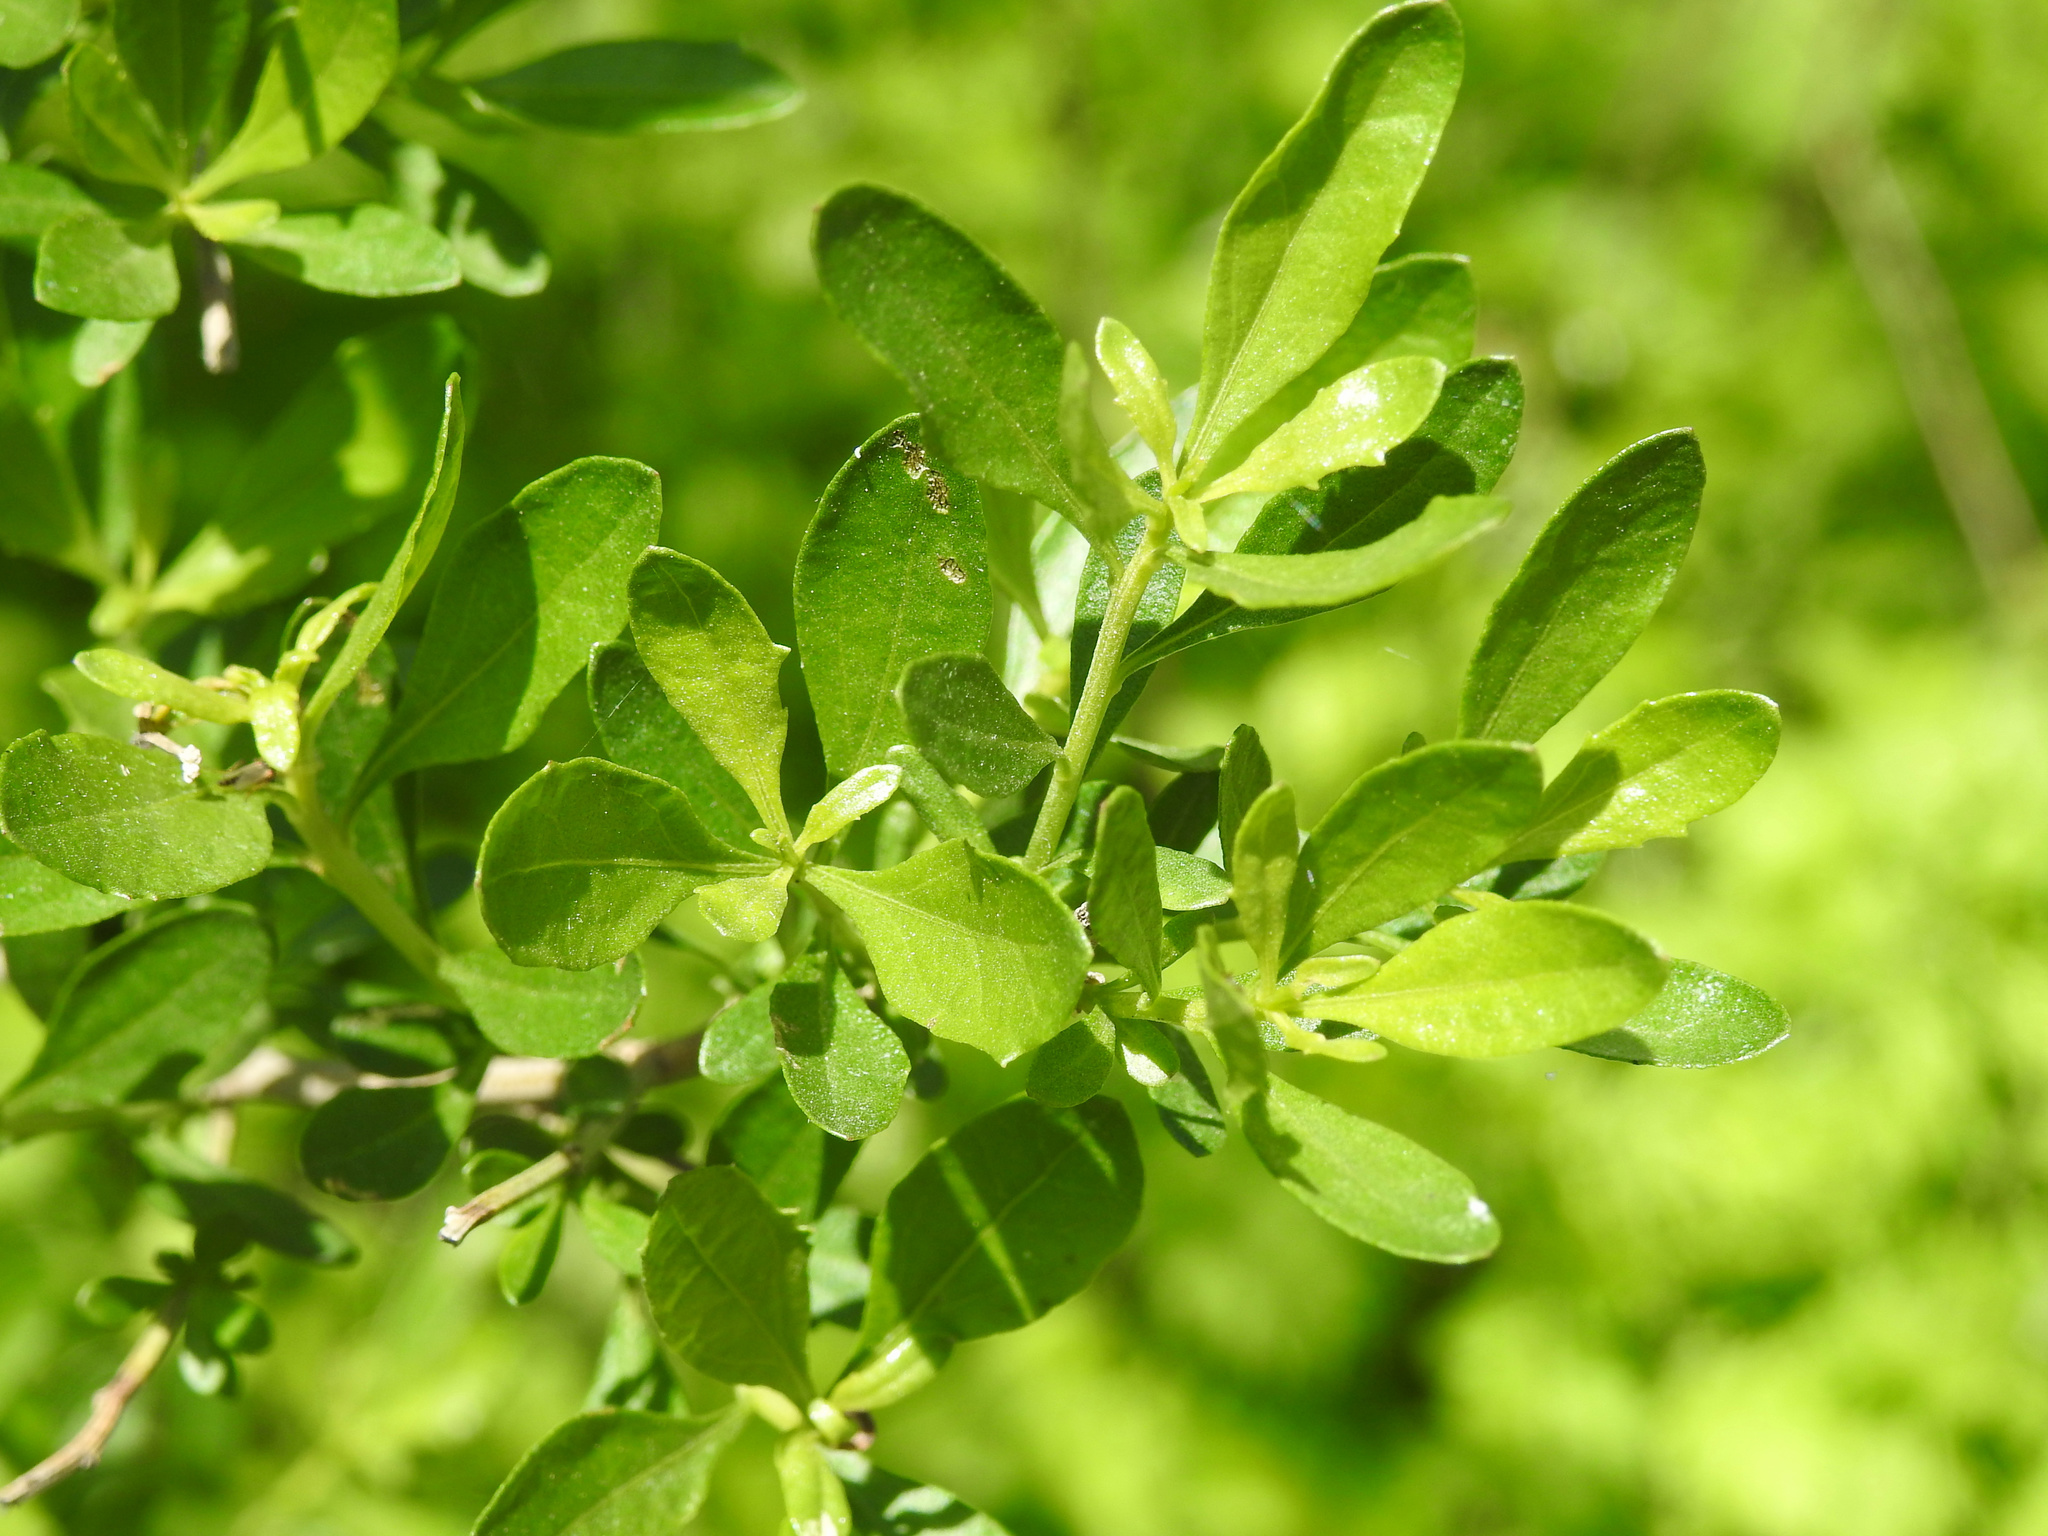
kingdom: Plantae
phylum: Tracheophyta
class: Magnoliopsida
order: Asterales
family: Asteraceae
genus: Baccharis
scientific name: Baccharis halimifolia
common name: Eastern baccharis
